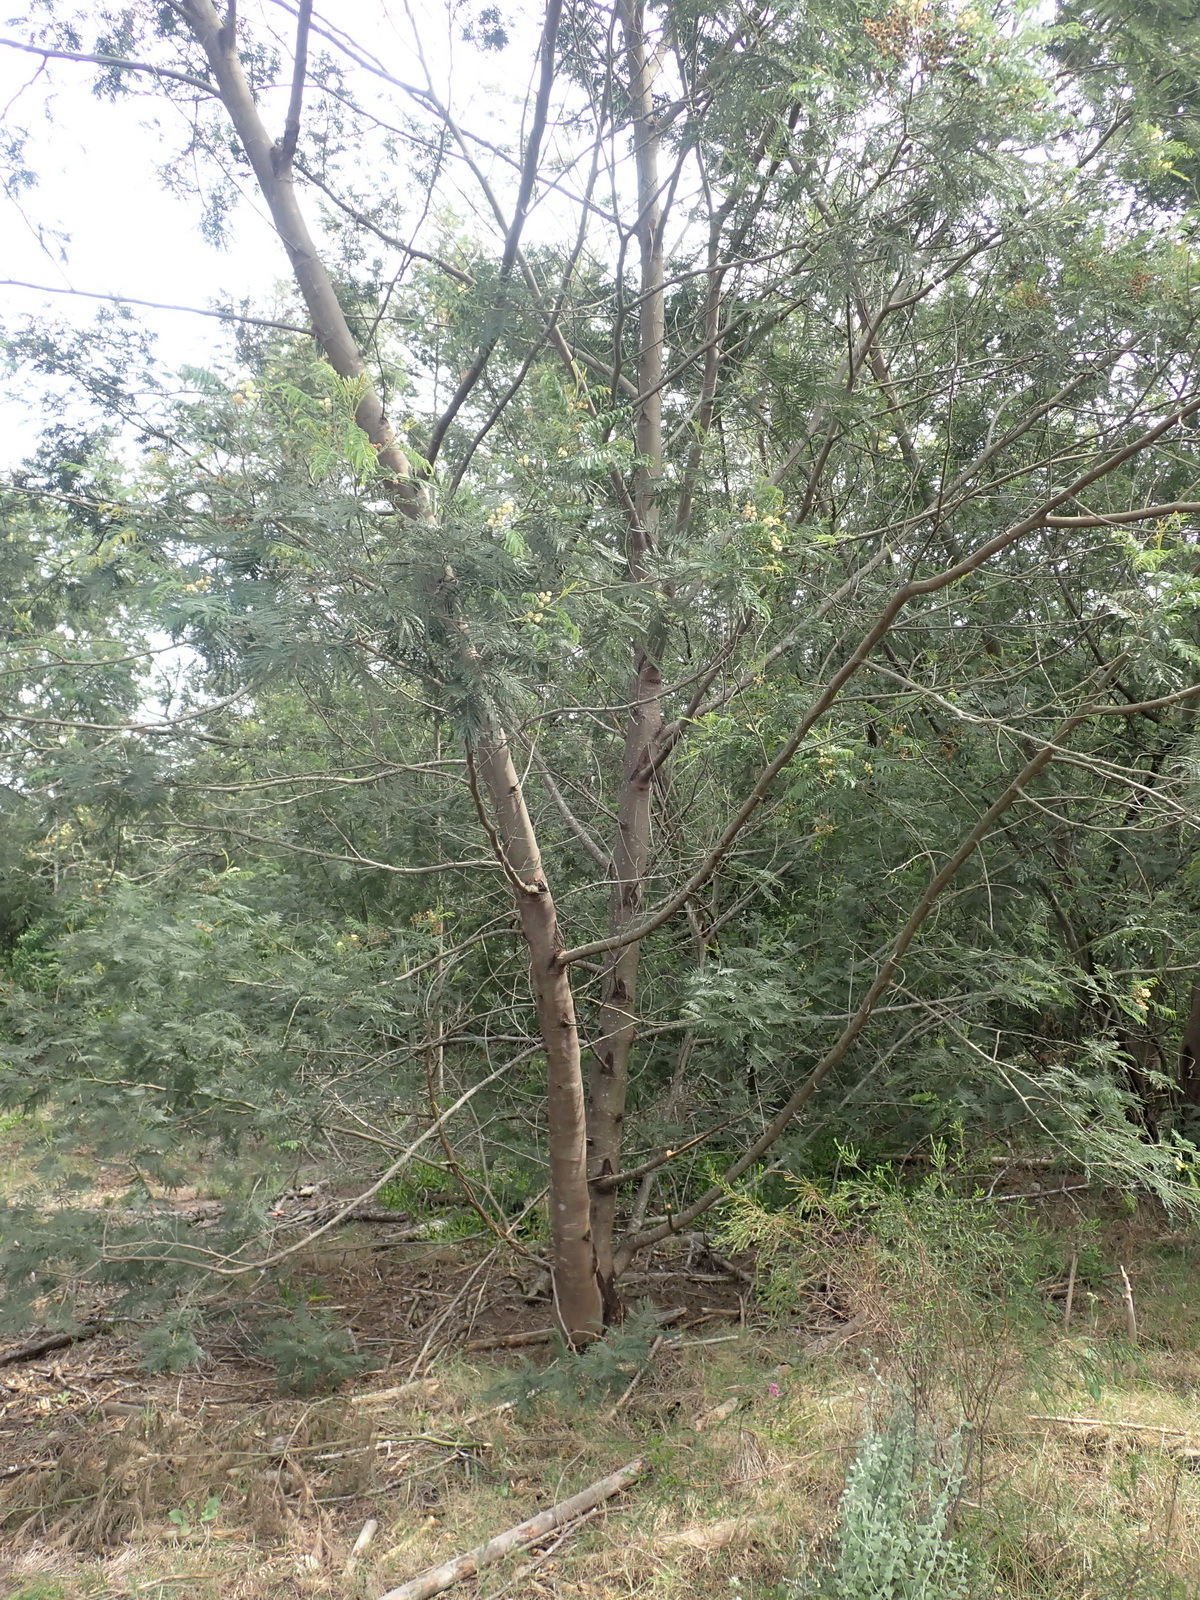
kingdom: Plantae
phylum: Tracheophyta
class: Magnoliopsida
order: Fabales
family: Fabaceae
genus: Acacia
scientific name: Acacia mearnsii
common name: Black wattle
